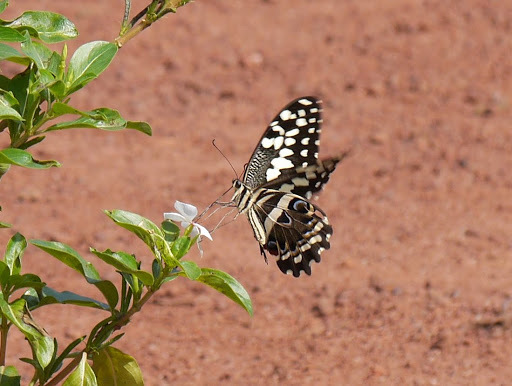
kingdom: Animalia
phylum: Arthropoda
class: Insecta
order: Lepidoptera
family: Papilionidae
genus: Papilio
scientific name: Papilio demodocus
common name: Christmas butterfly
